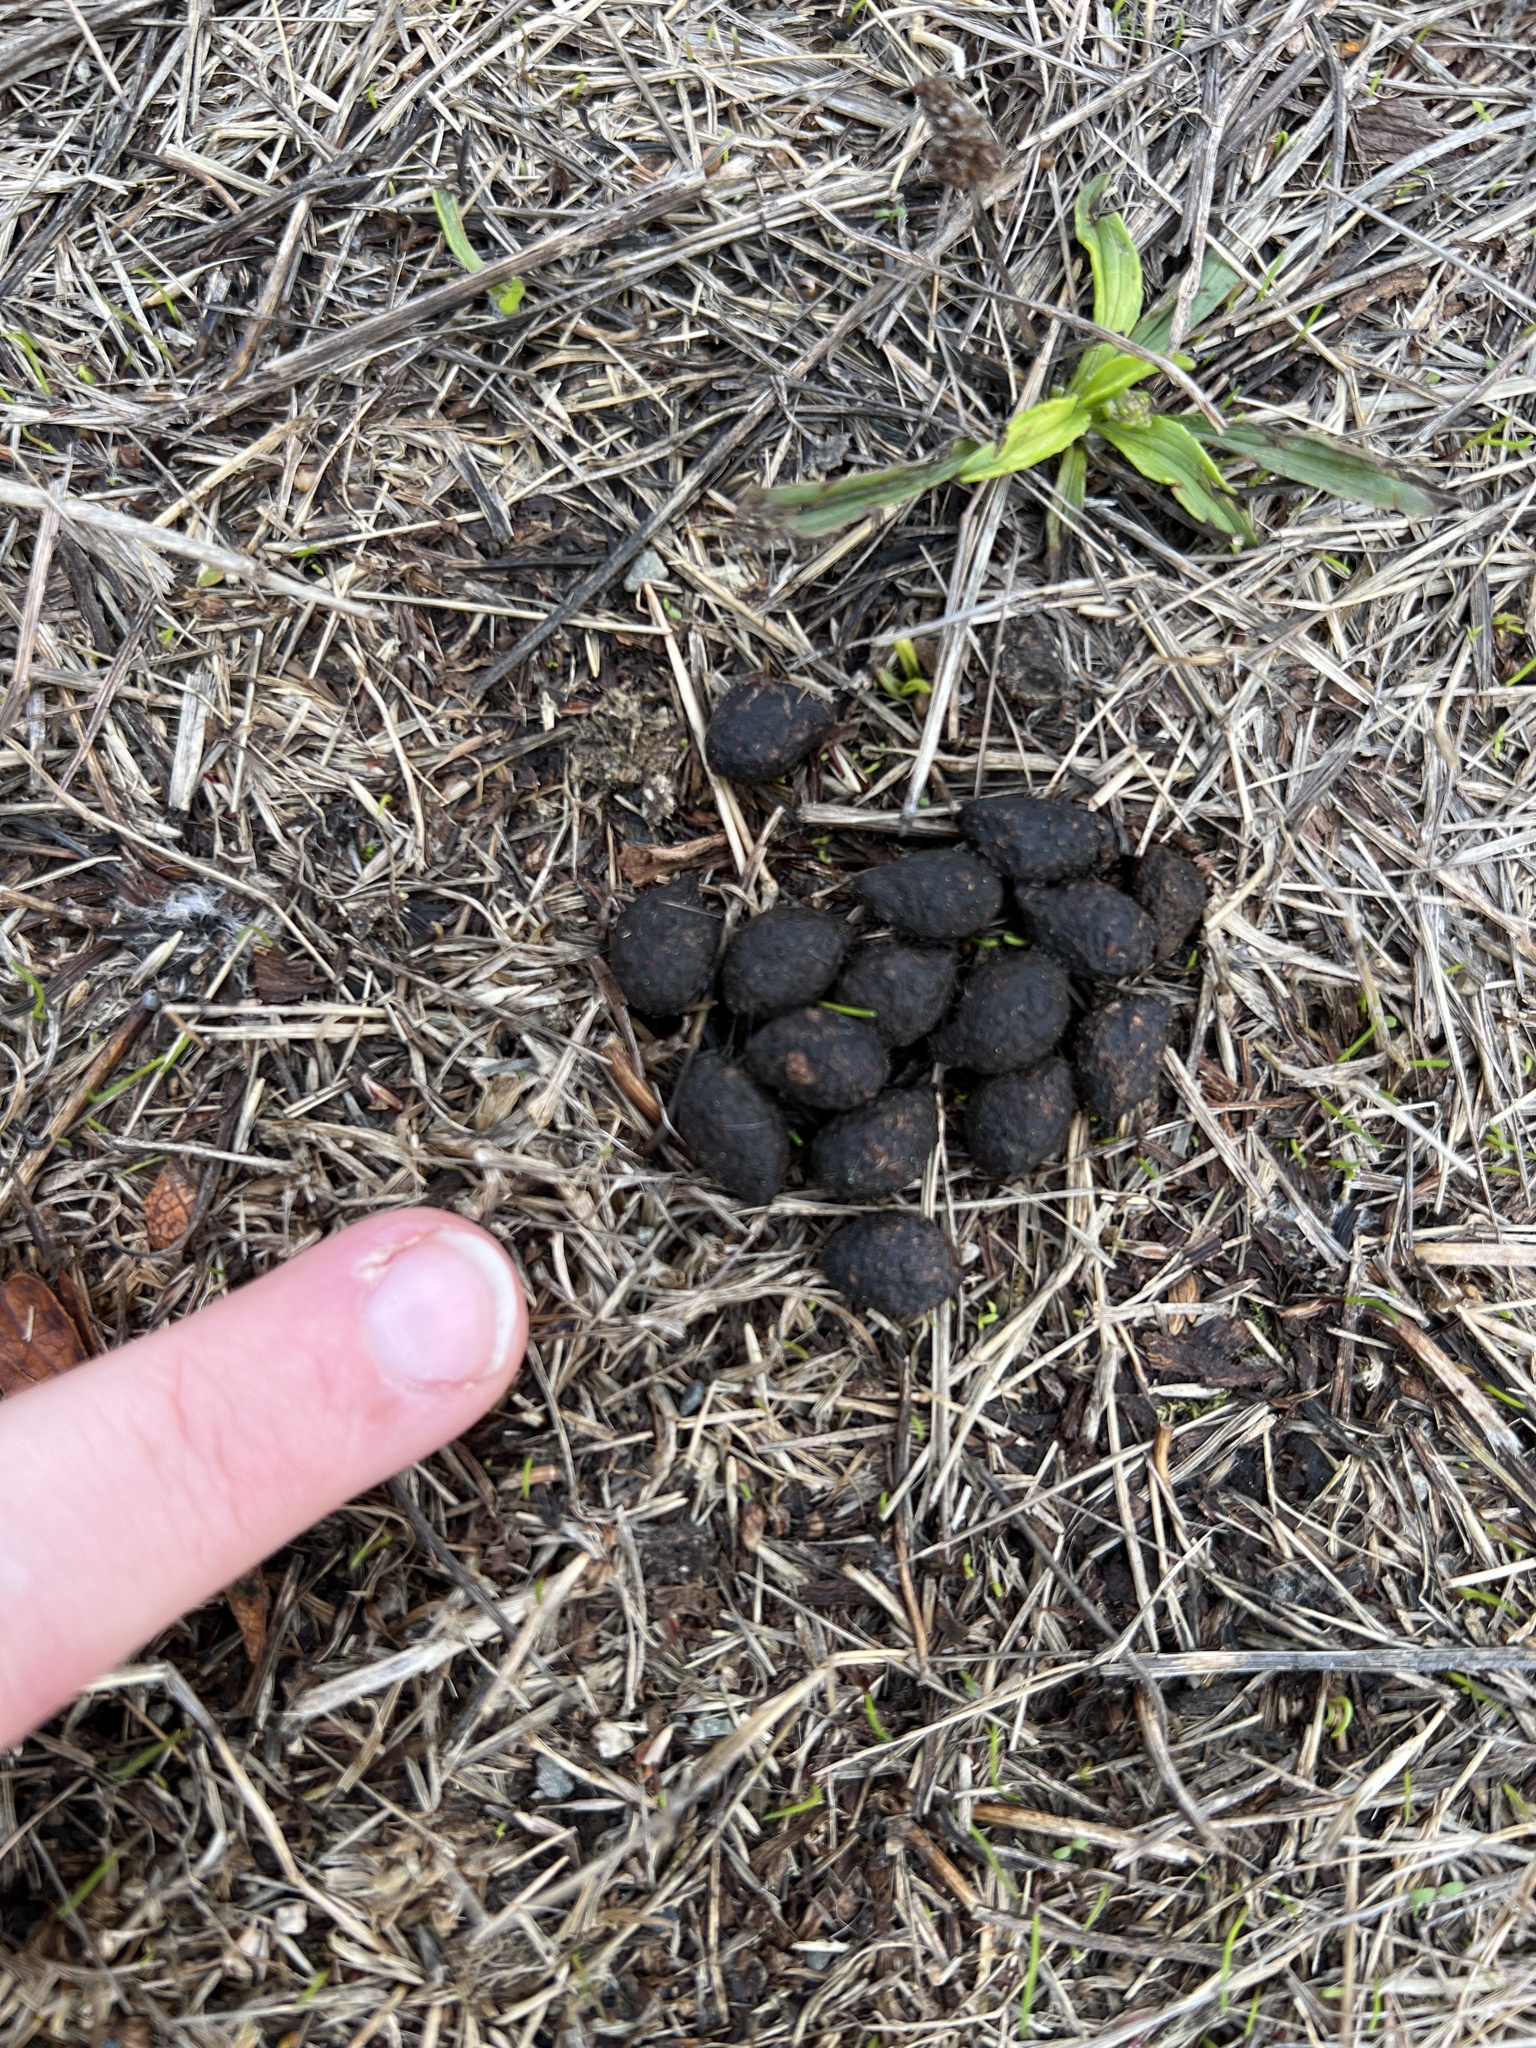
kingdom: Animalia
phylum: Chordata
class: Mammalia
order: Lagomorpha
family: Leporidae
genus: Sylvilagus
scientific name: Sylvilagus floridanus
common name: Eastern cottontail
